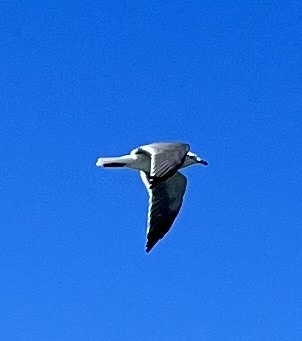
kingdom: Animalia
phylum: Chordata
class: Aves
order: Charadriiformes
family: Laridae
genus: Leucophaeus
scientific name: Leucophaeus atricilla
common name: Laughing gull
